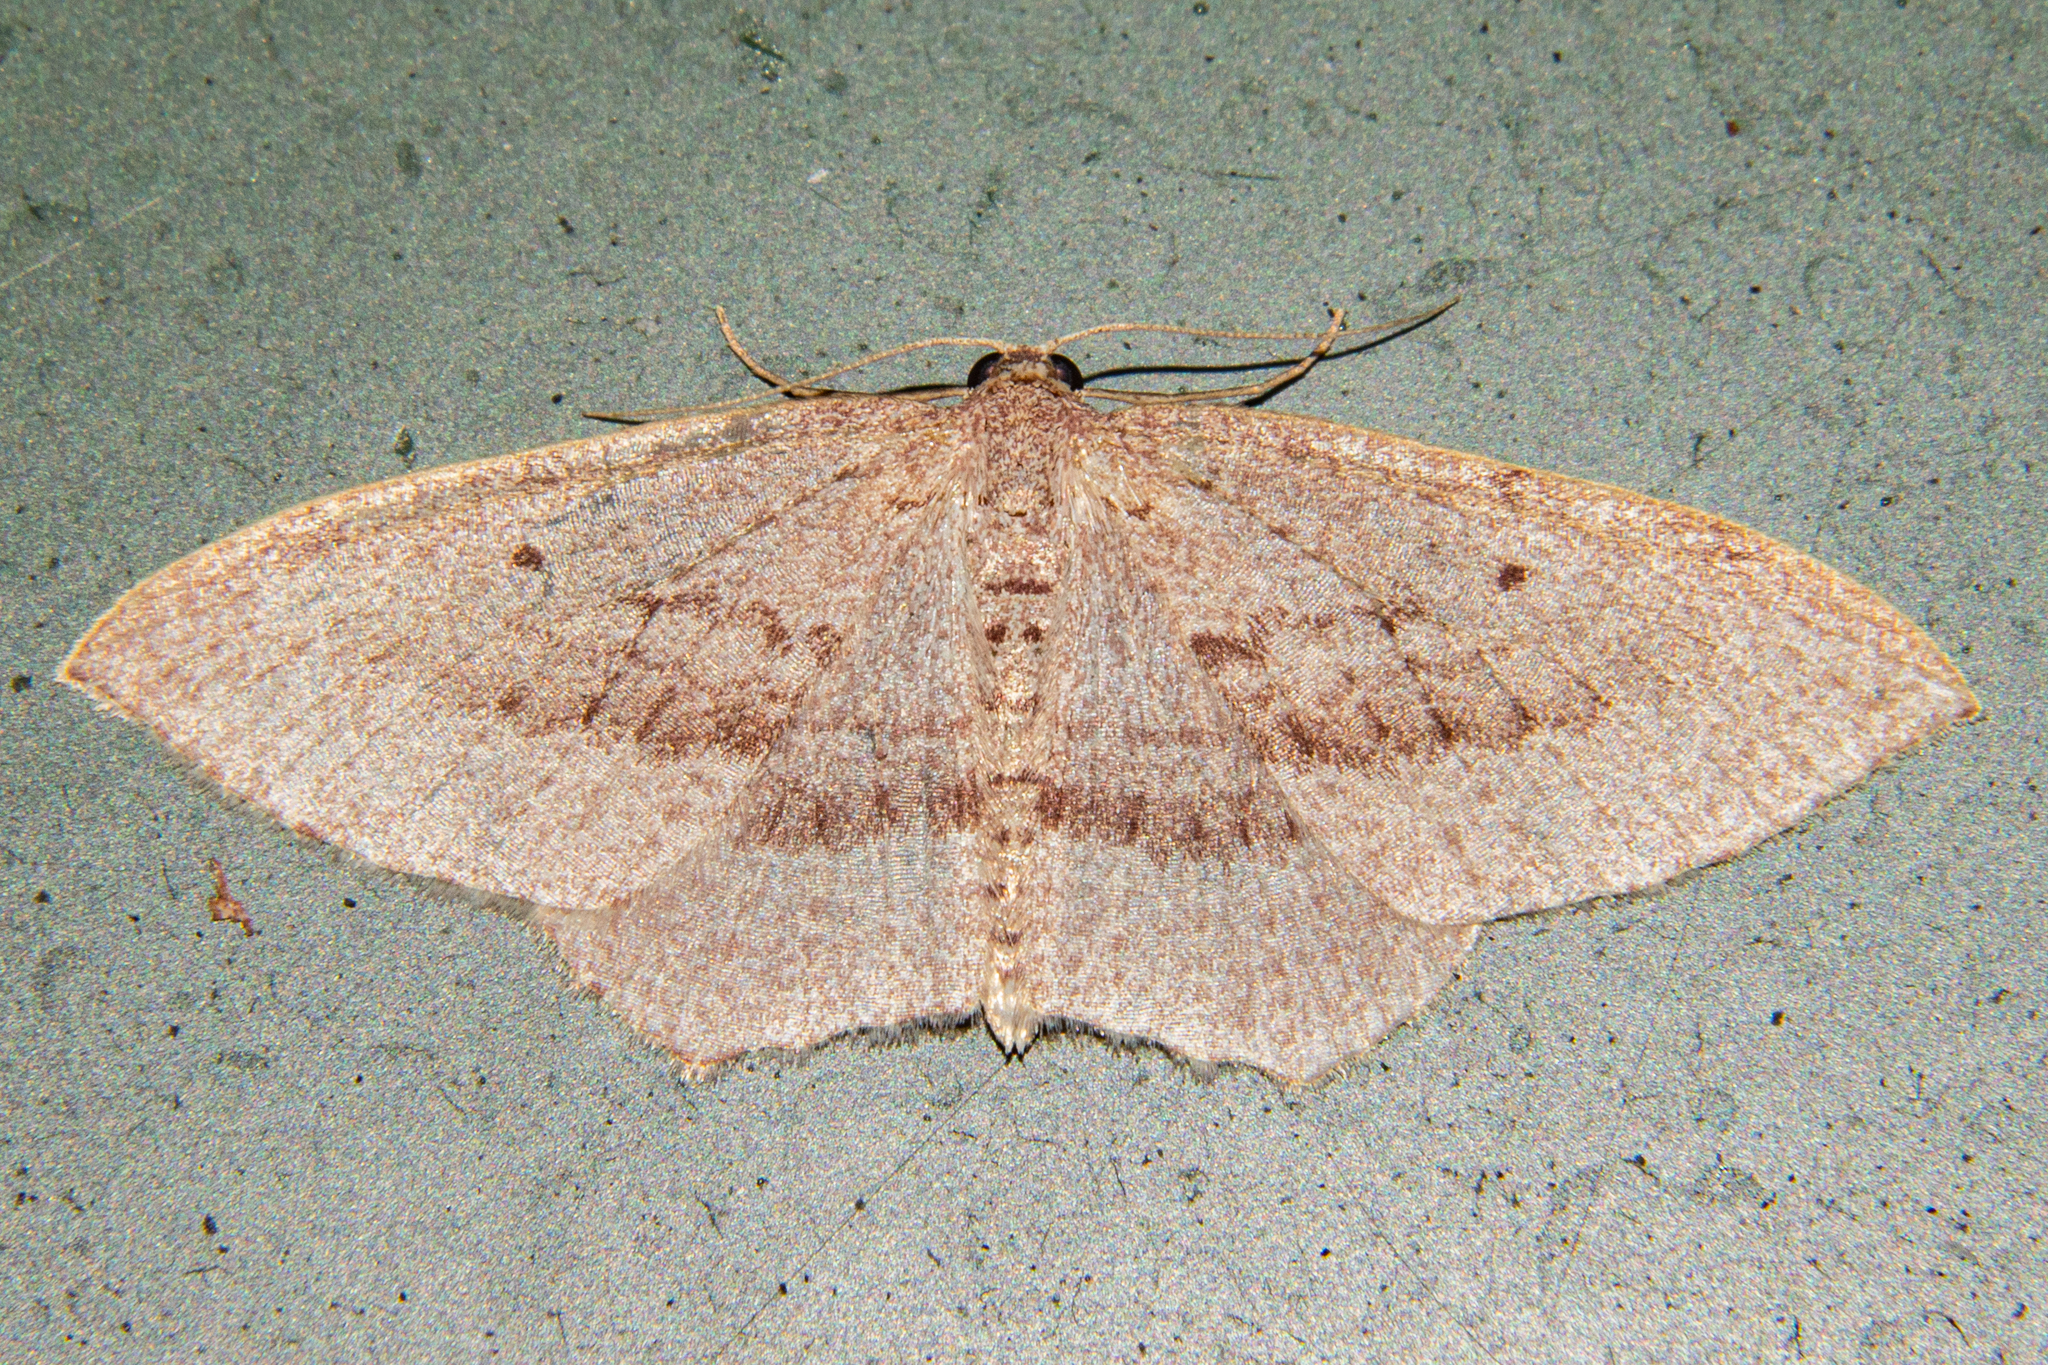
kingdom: Animalia
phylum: Arthropoda
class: Insecta
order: Lepidoptera
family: Geometridae
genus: Poecilasthena
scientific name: Poecilasthena subpurpureata
